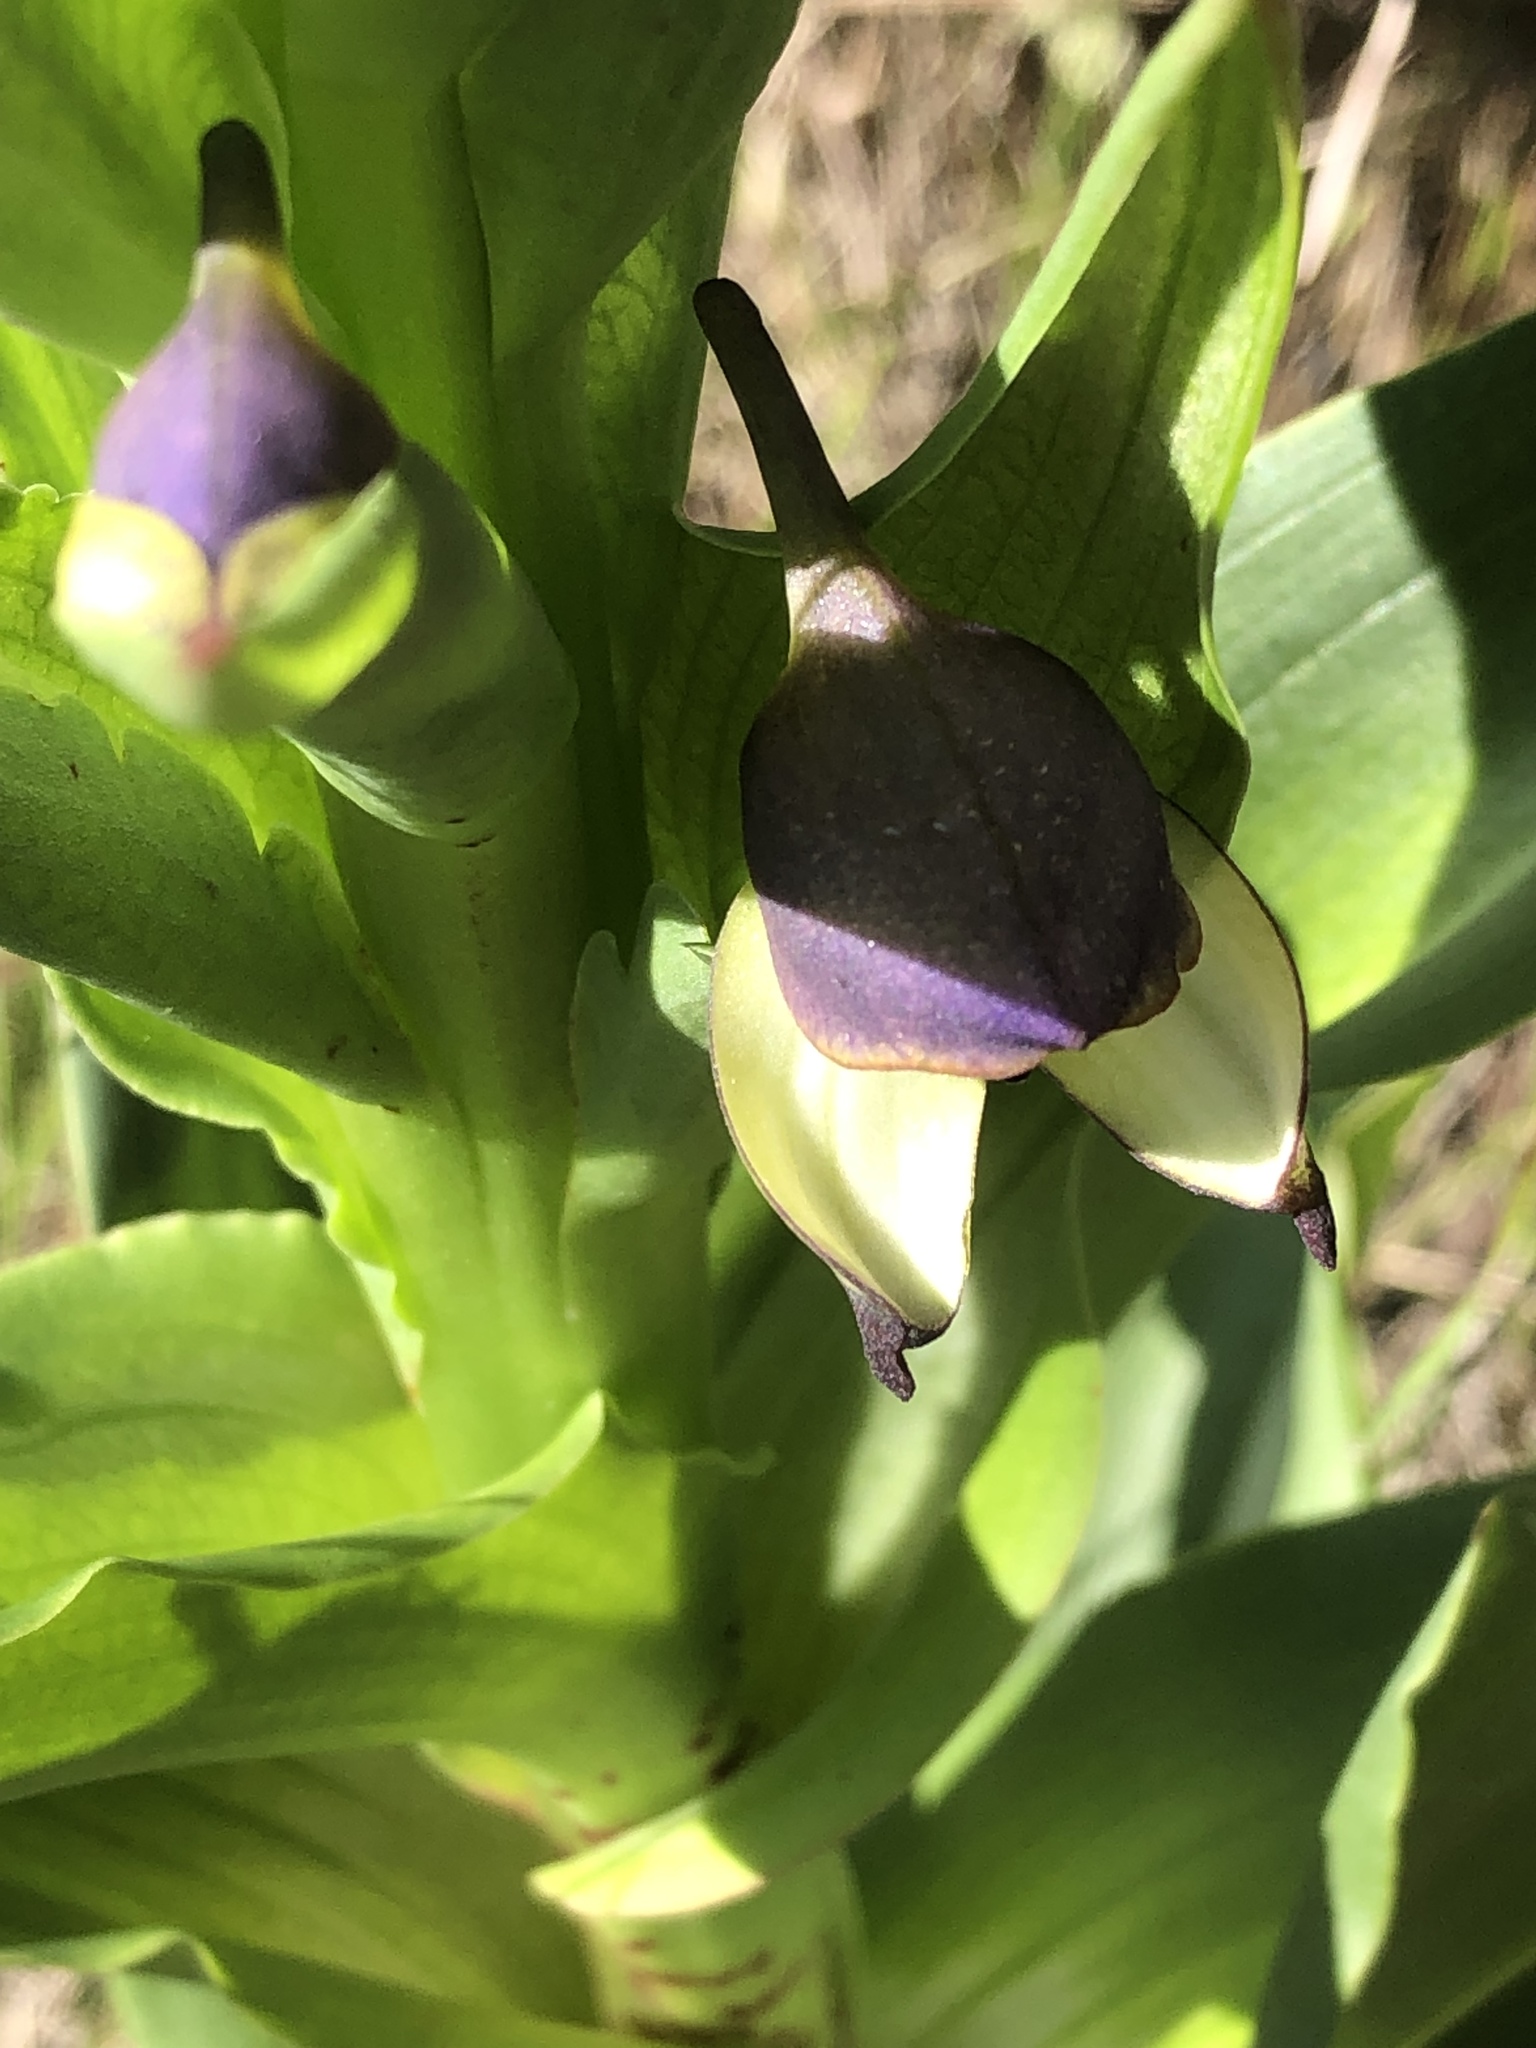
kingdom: Plantae
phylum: Tracheophyta
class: Liliopsida
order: Asparagales
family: Orchidaceae
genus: Disa
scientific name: Disa cornuta
